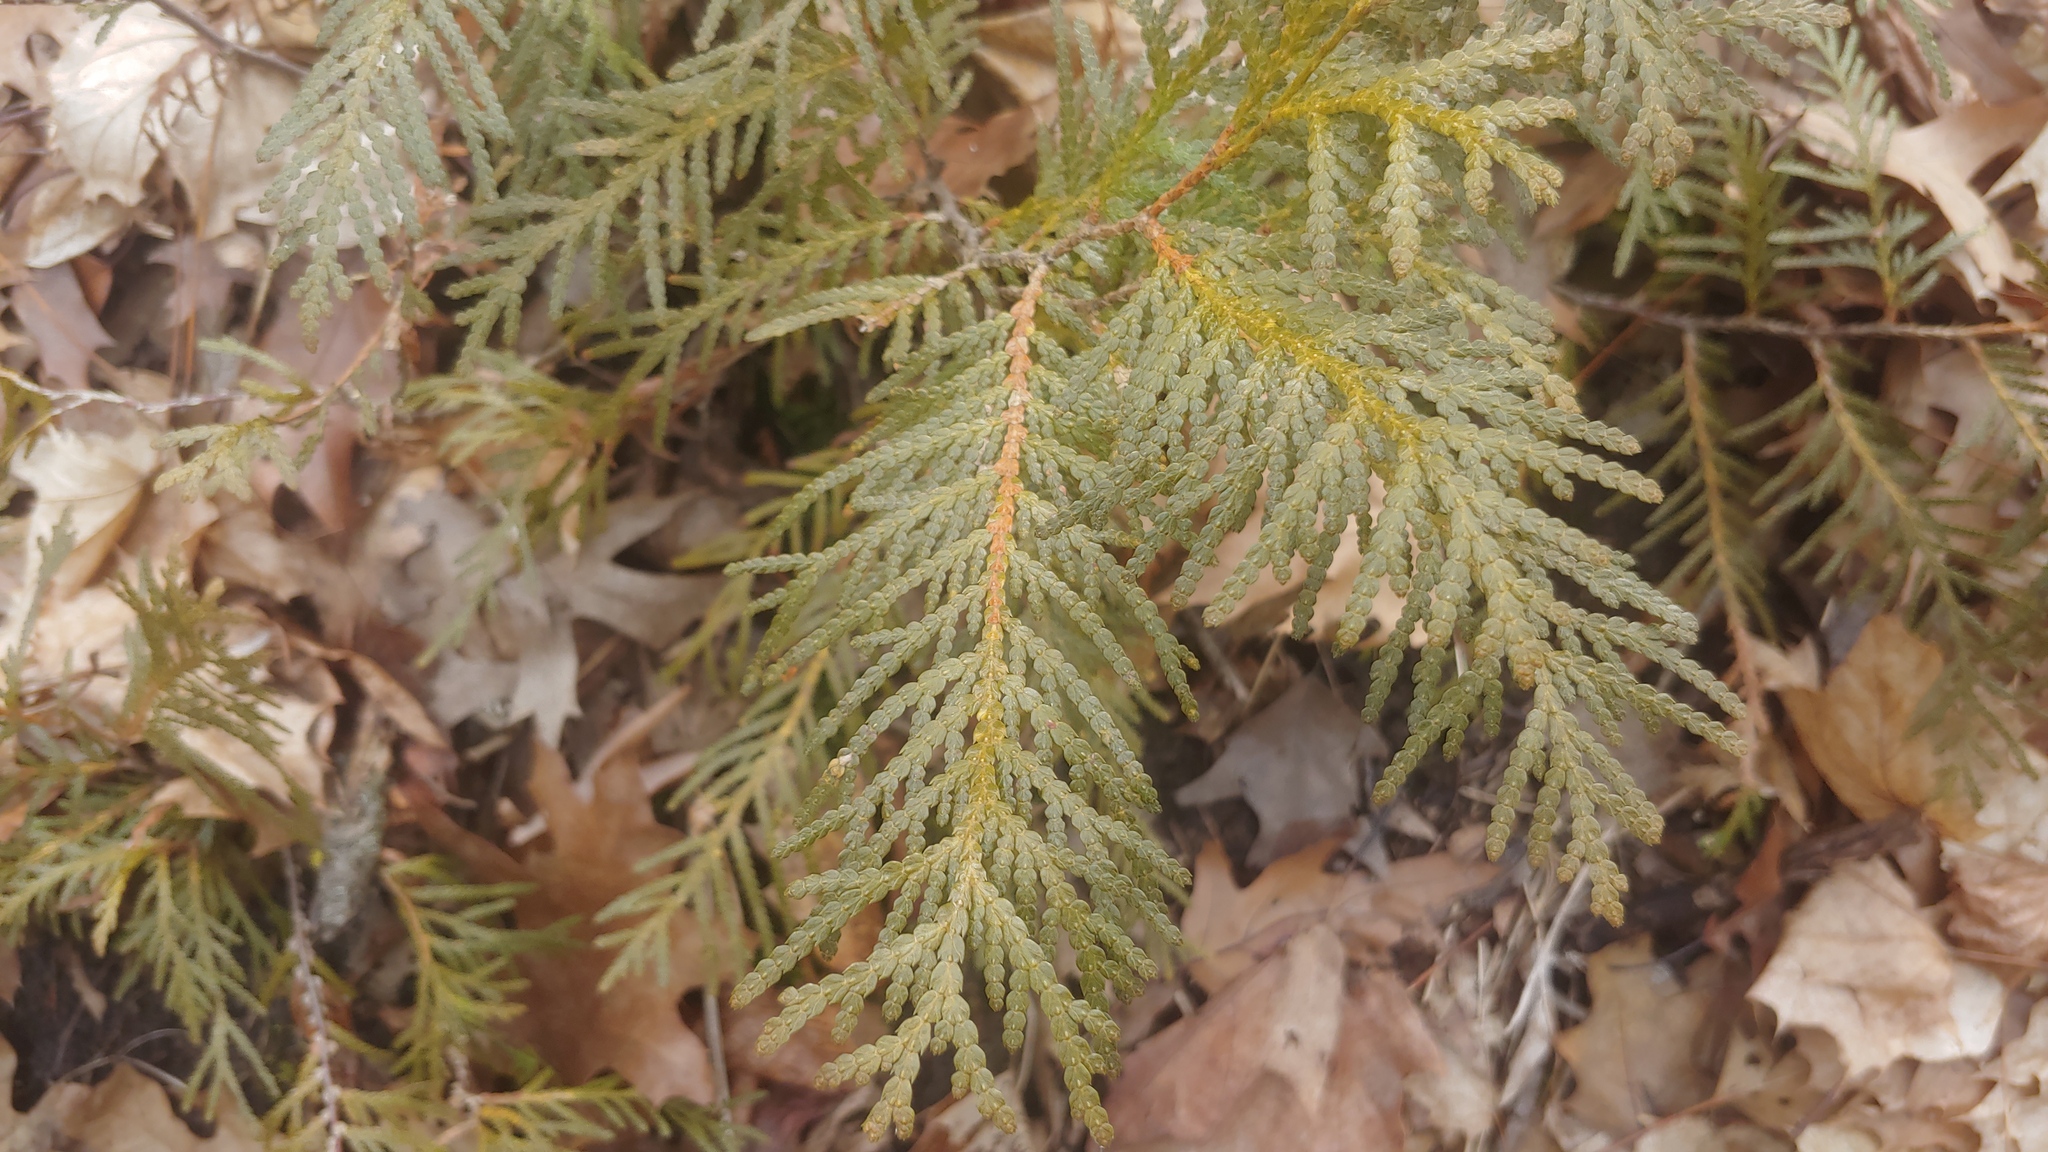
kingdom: Plantae
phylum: Tracheophyta
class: Pinopsida
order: Pinales
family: Cupressaceae
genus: Thuja
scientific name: Thuja occidentalis
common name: Northern white-cedar
